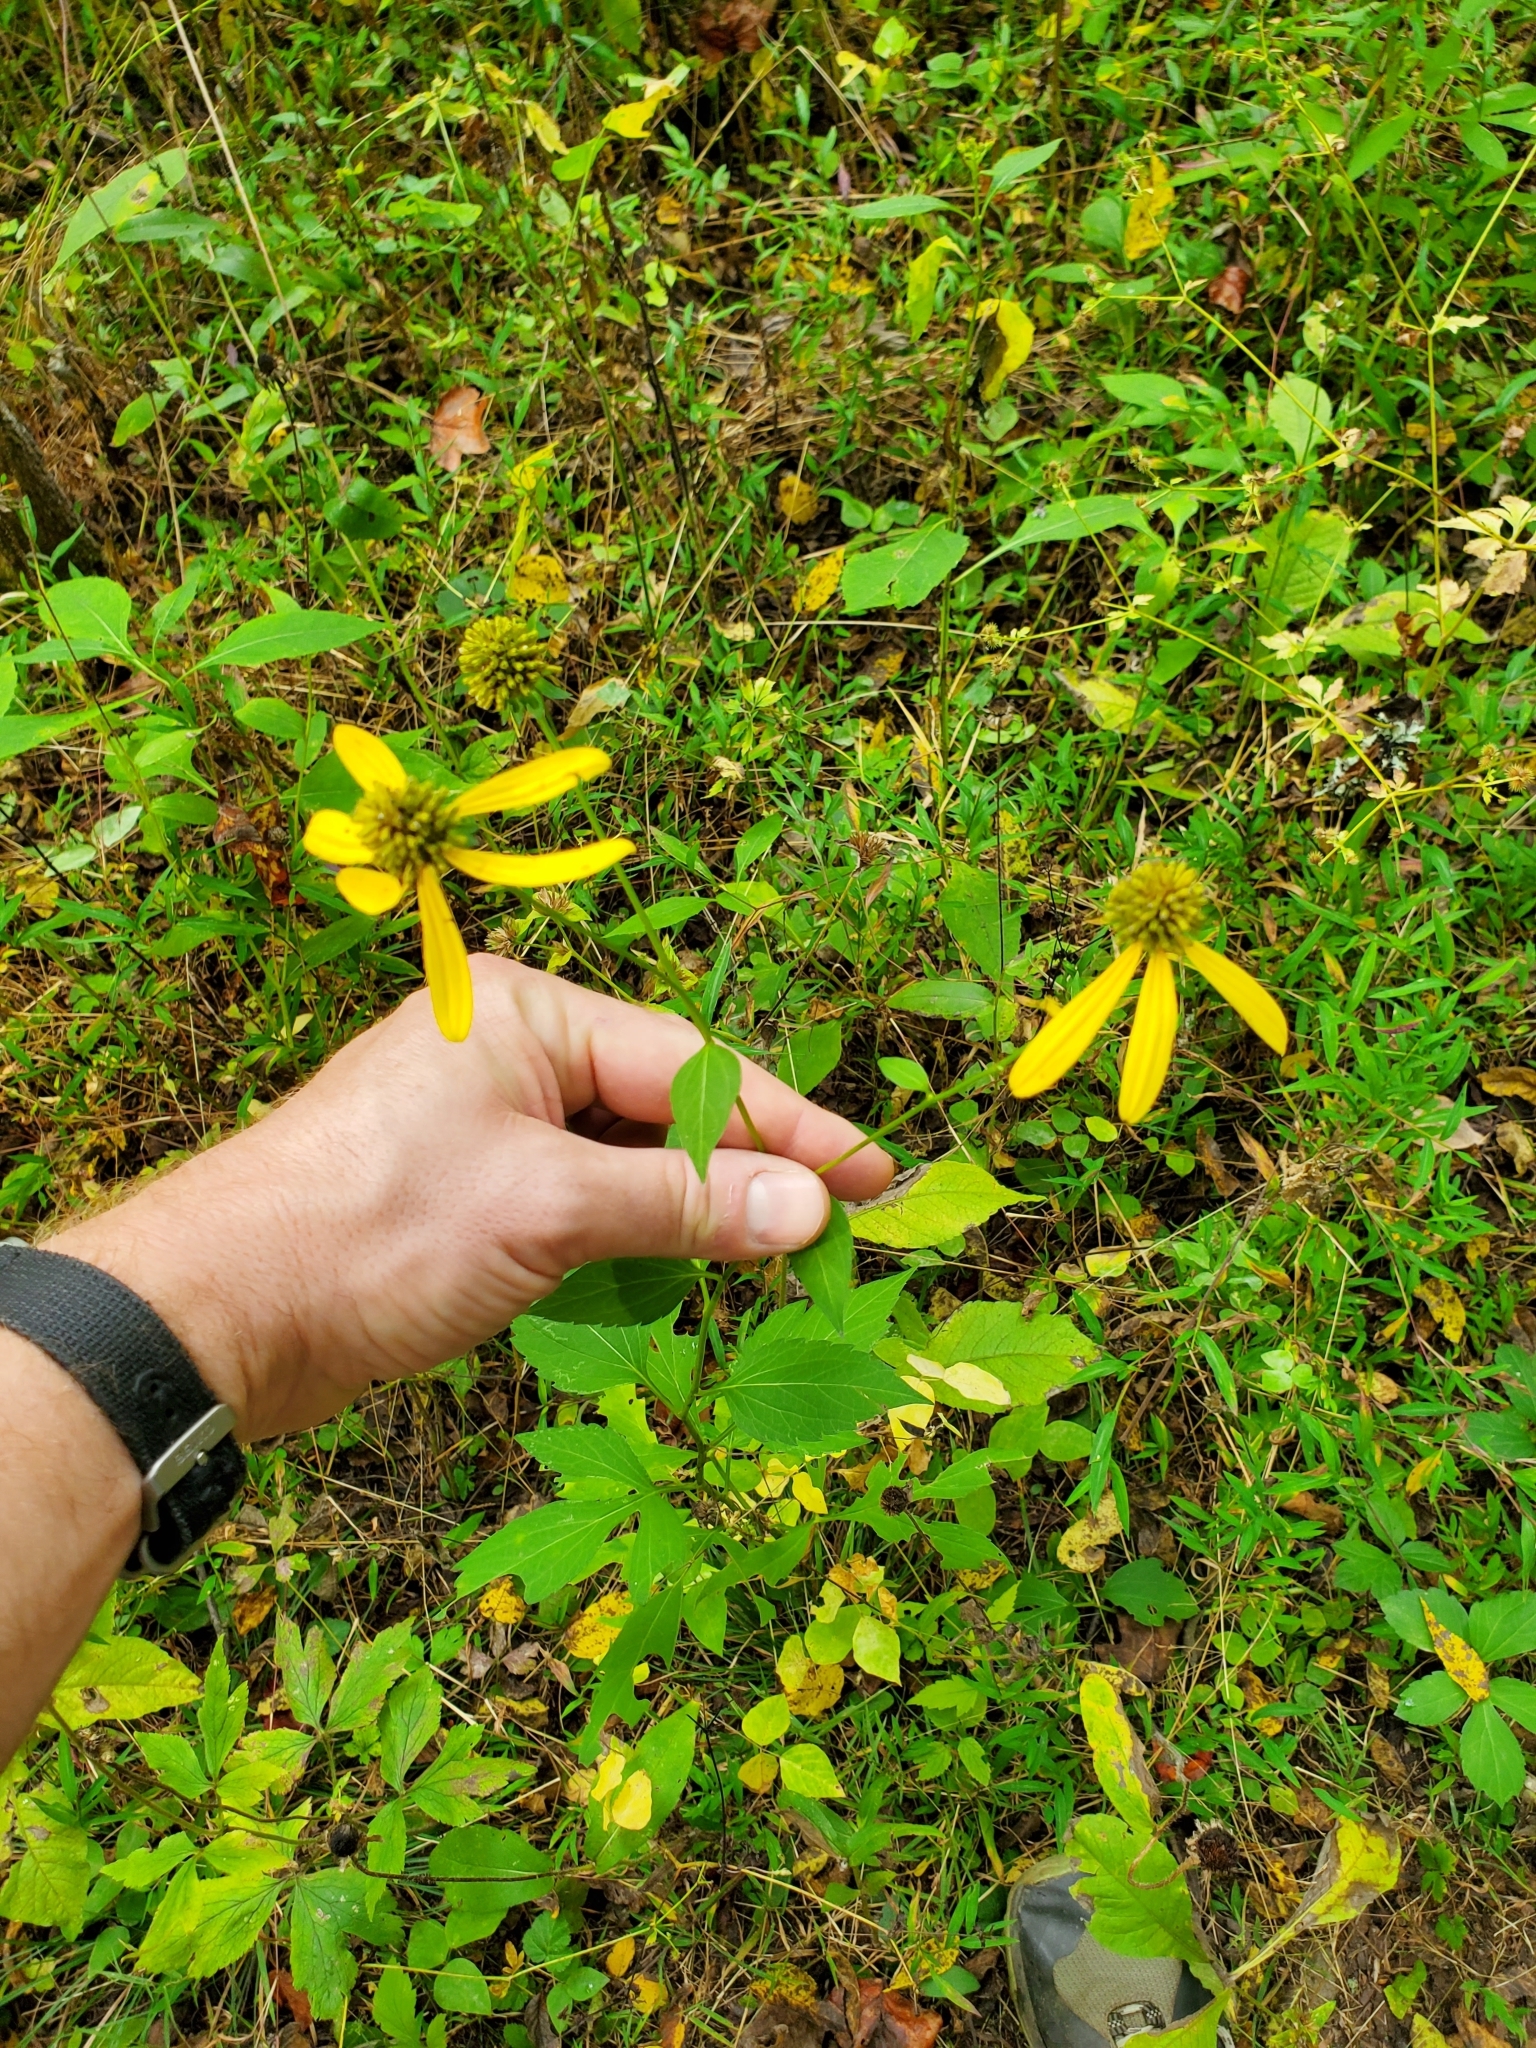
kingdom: Plantae
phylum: Tracheophyta
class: Magnoliopsida
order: Asterales
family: Asteraceae
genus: Rudbeckia
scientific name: Rudbeckia laciniata
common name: Coneflower
